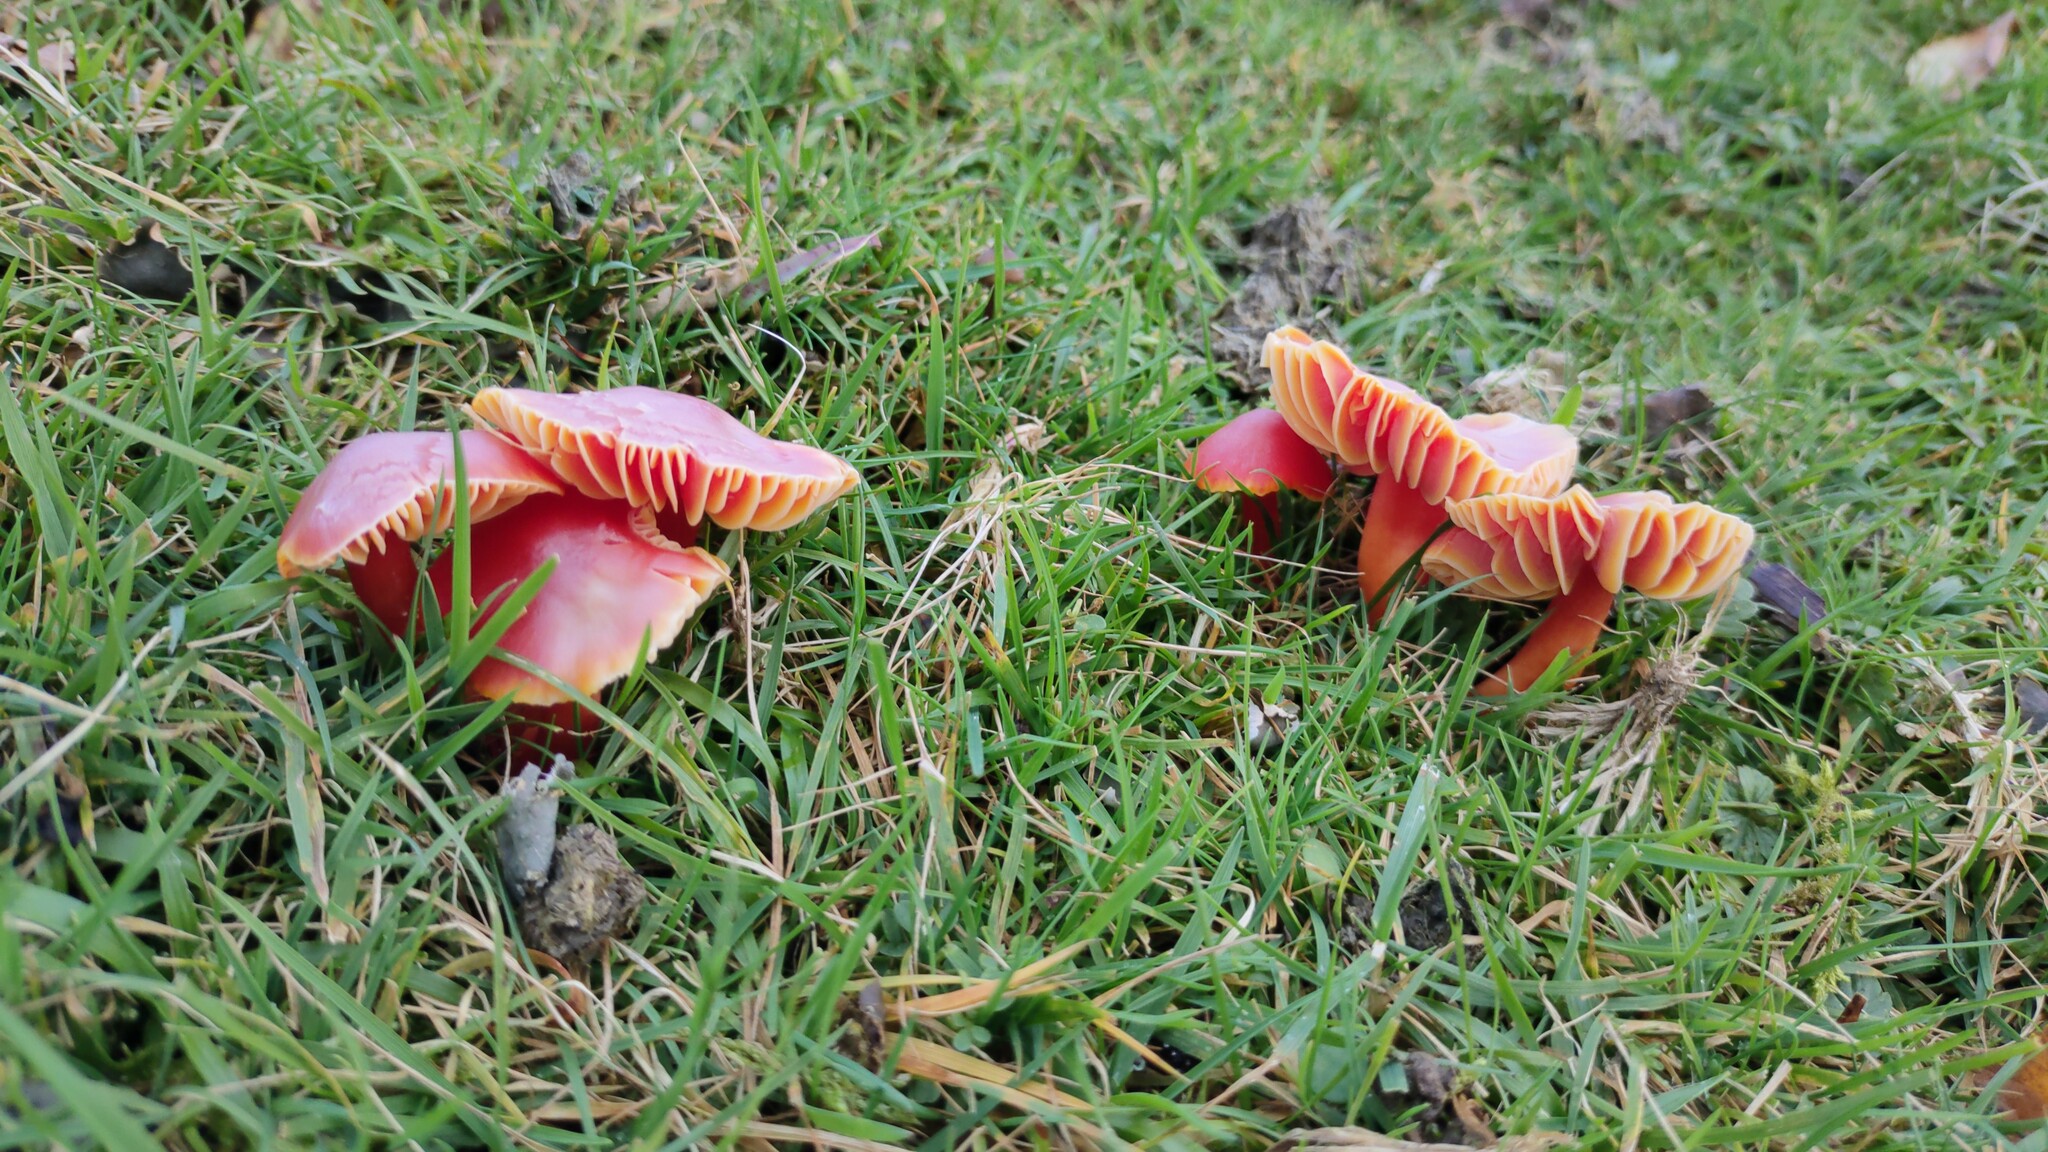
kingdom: Fungi
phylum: Basidiomycota
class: Agaricomycetes
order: Agaricales
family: Hygrophoraceae
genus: Hygrocybe
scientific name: Hygrocybe coccinea
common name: Scarlet hood
